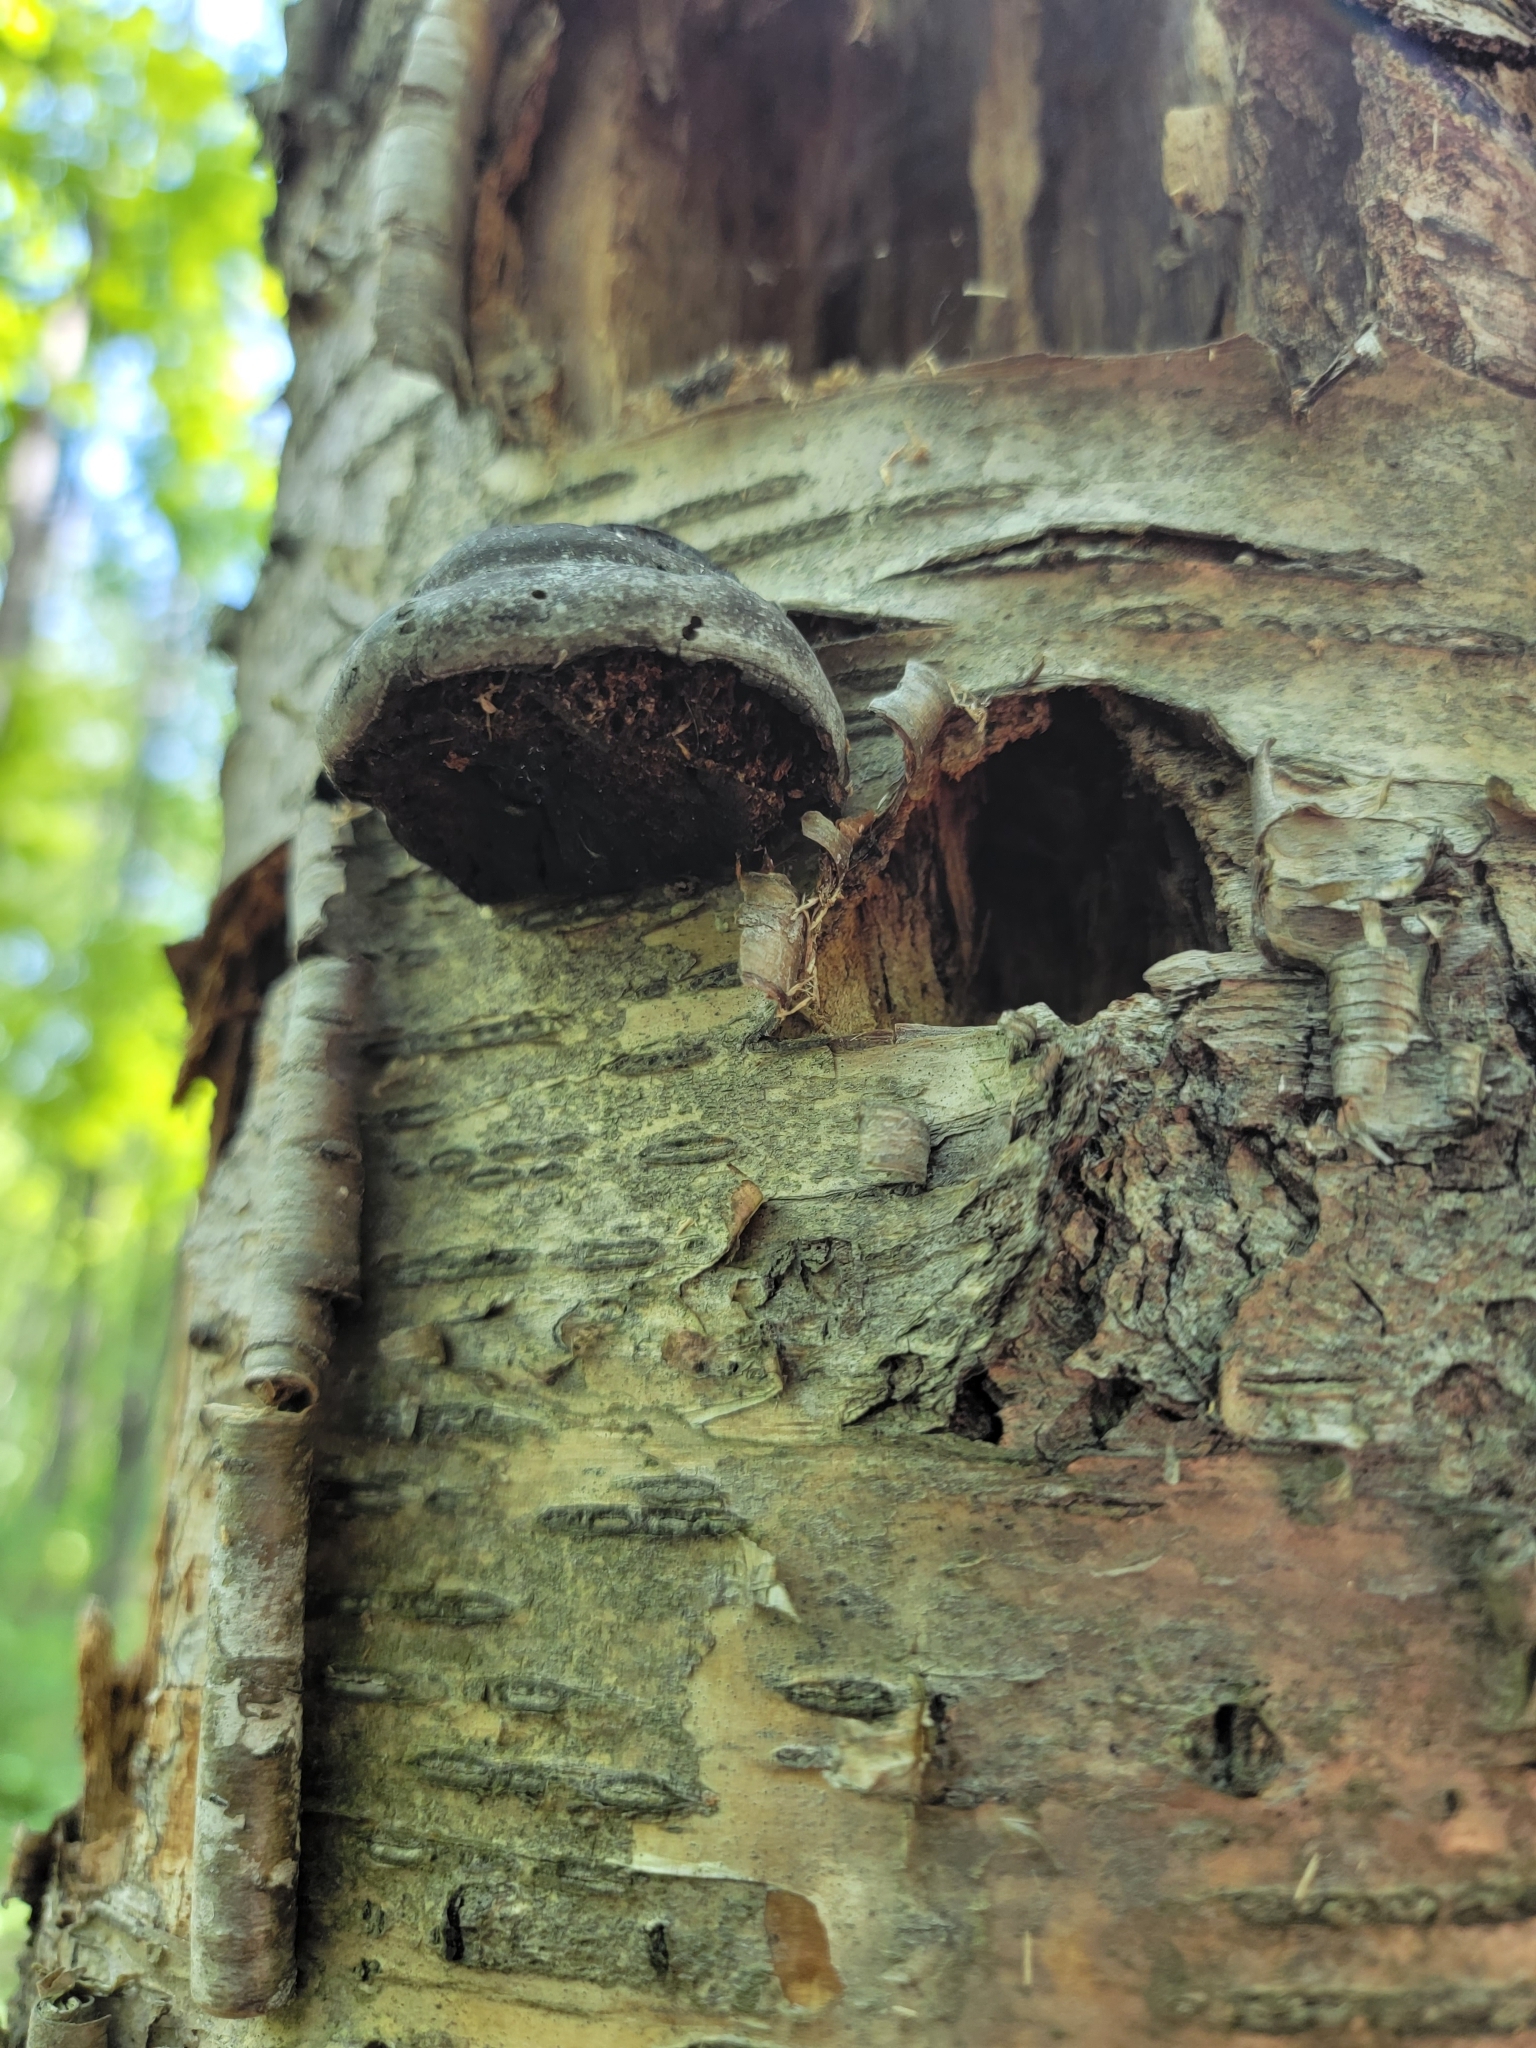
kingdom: Fungi
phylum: Basidiomycota
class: Agaricomycetes
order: Polyporales
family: Polyporaceae
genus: Fomes
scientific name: Fomes fomentarius
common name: Hoof fungus
